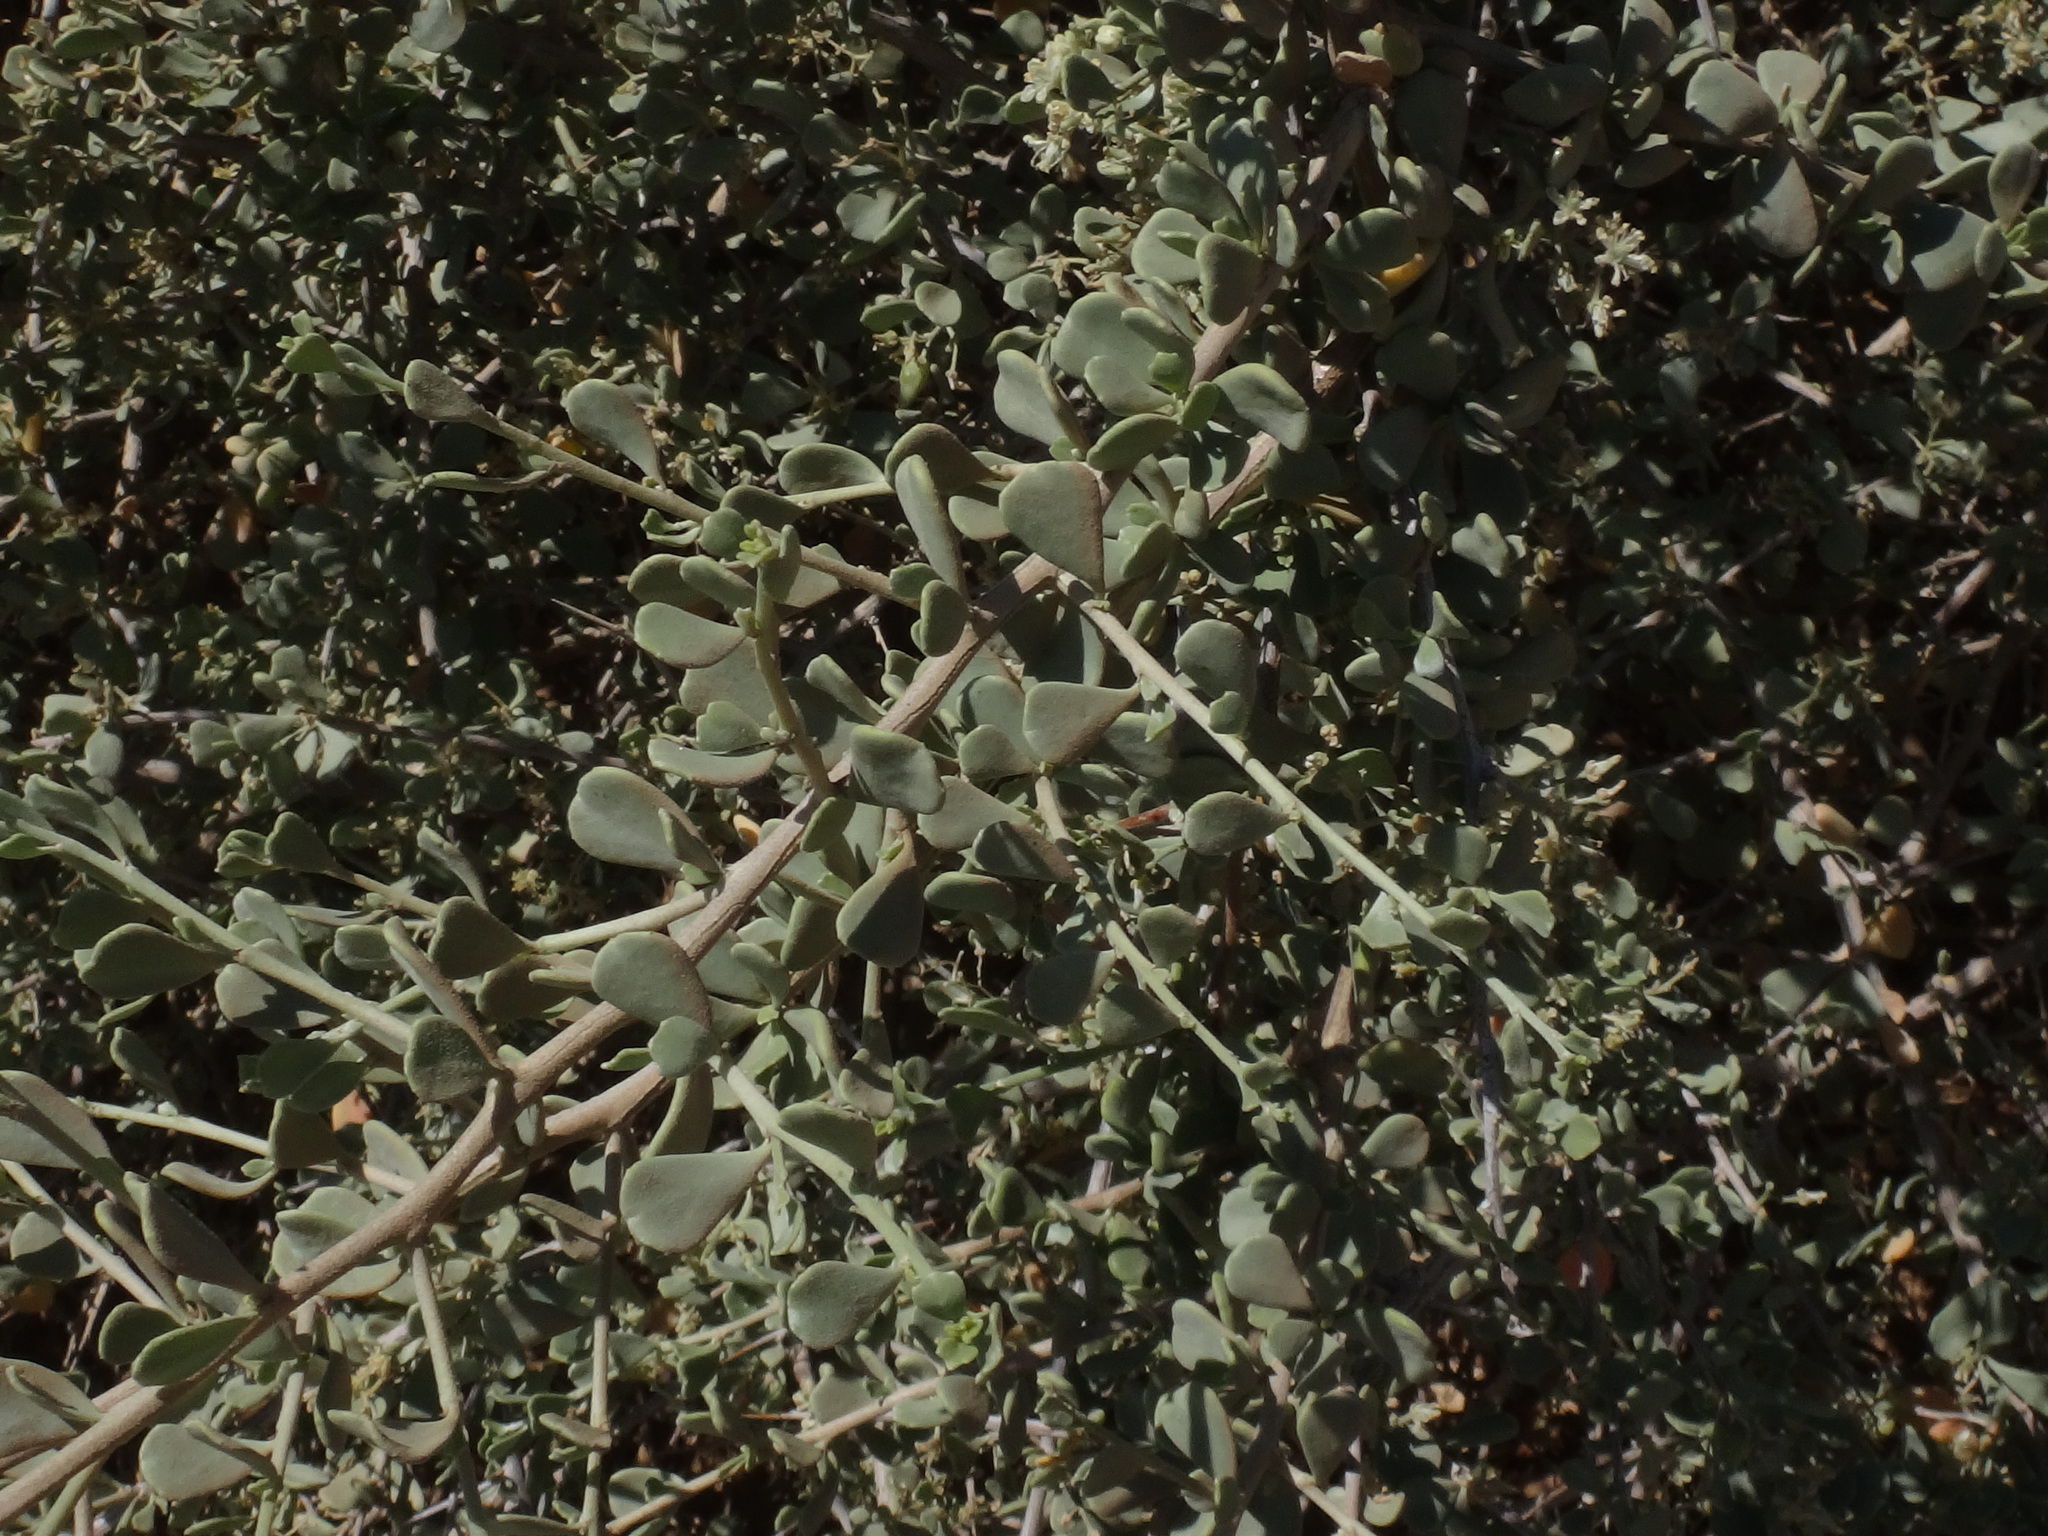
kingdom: Plantae
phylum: Tracheophyta
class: Magnoliopsida
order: Sapindales
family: Nitrariaceae
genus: Nitraria
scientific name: Nitraria retusa
